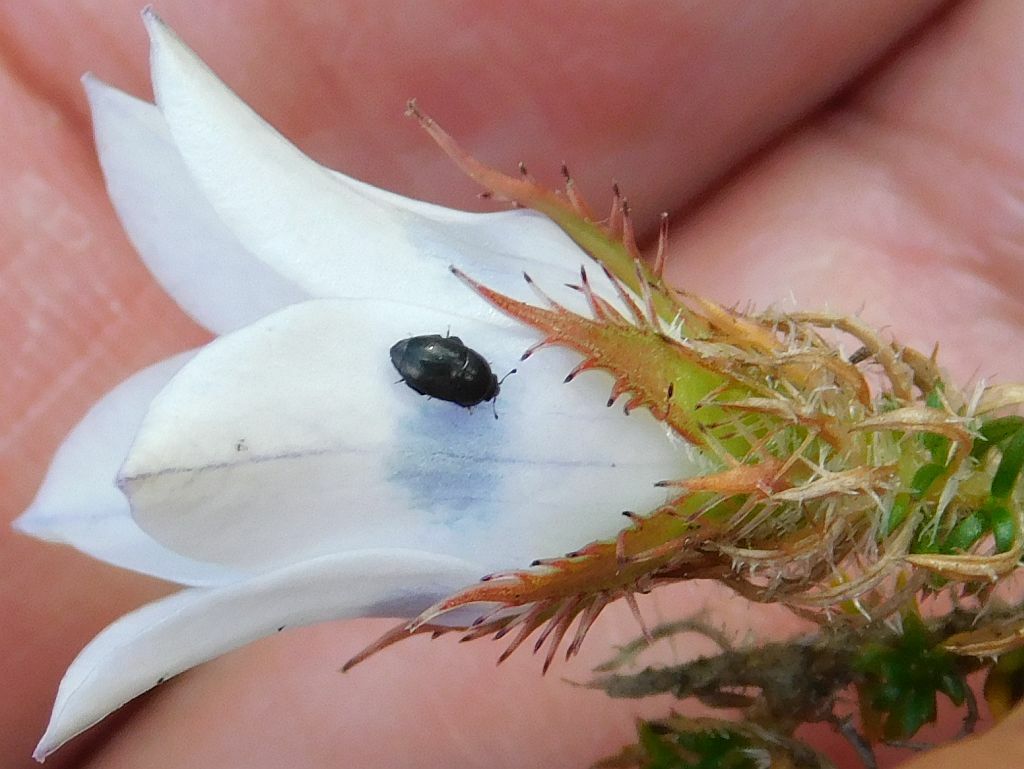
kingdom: Animalia
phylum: Arthropoda
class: Insecta
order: Coleoptera
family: Nitidulidae
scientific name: Nitidulidae
